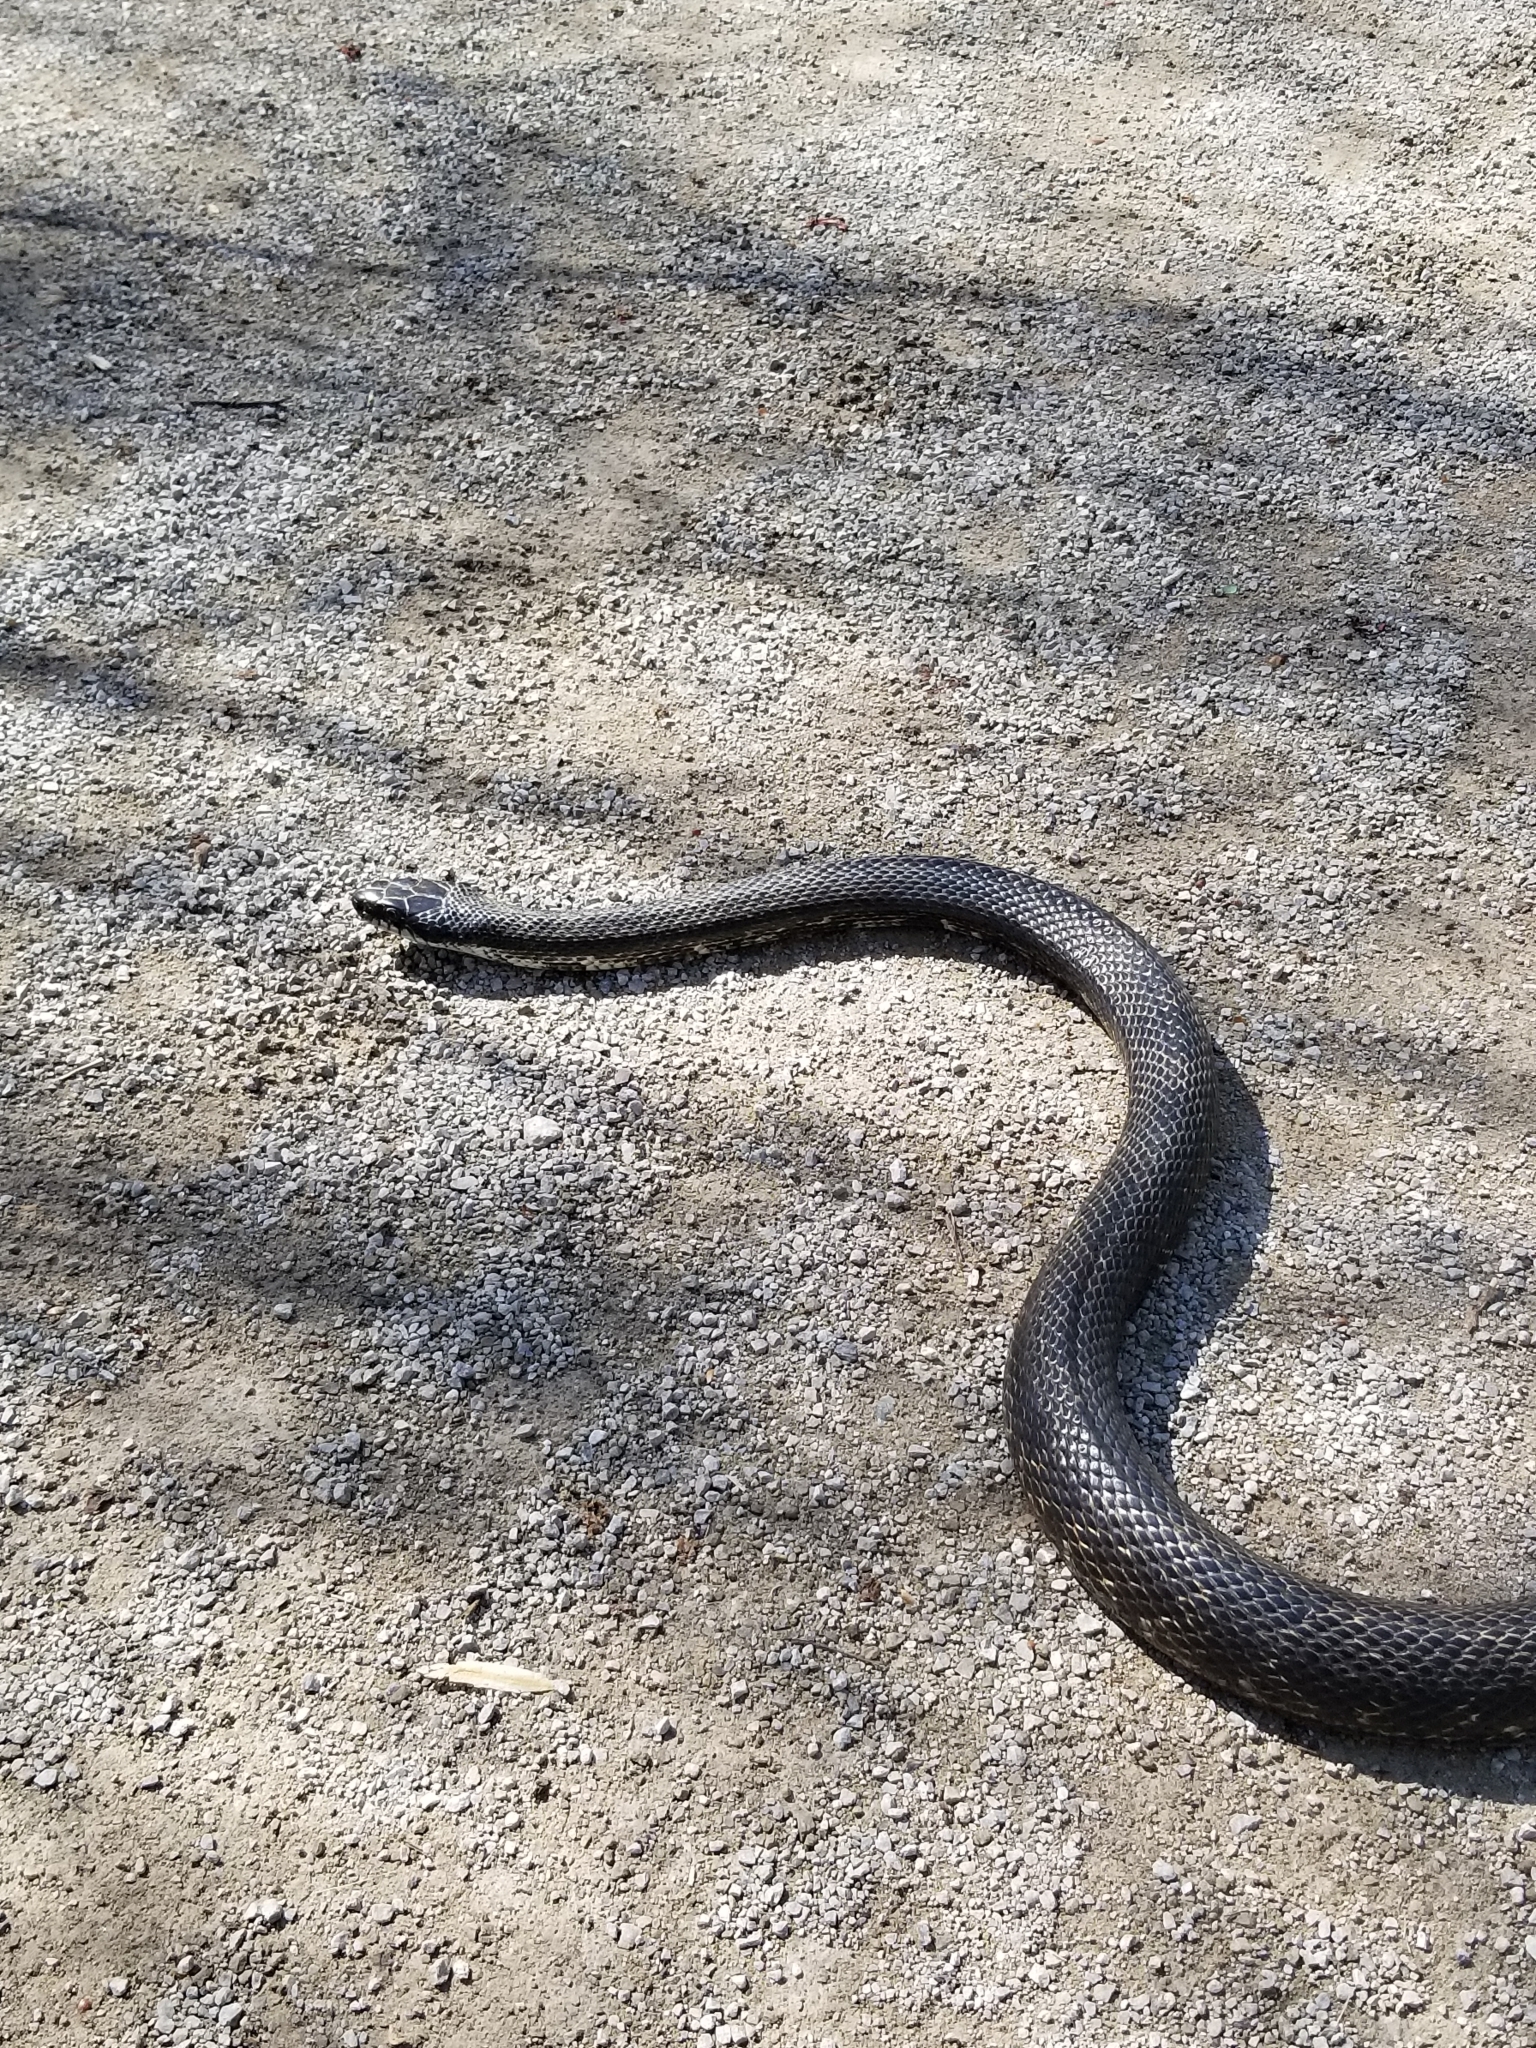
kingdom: Animalia
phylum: Chordata
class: Squamata
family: Colubridae
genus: Pantherophis
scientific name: Pantherophis spiloides
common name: Gray rat snake
